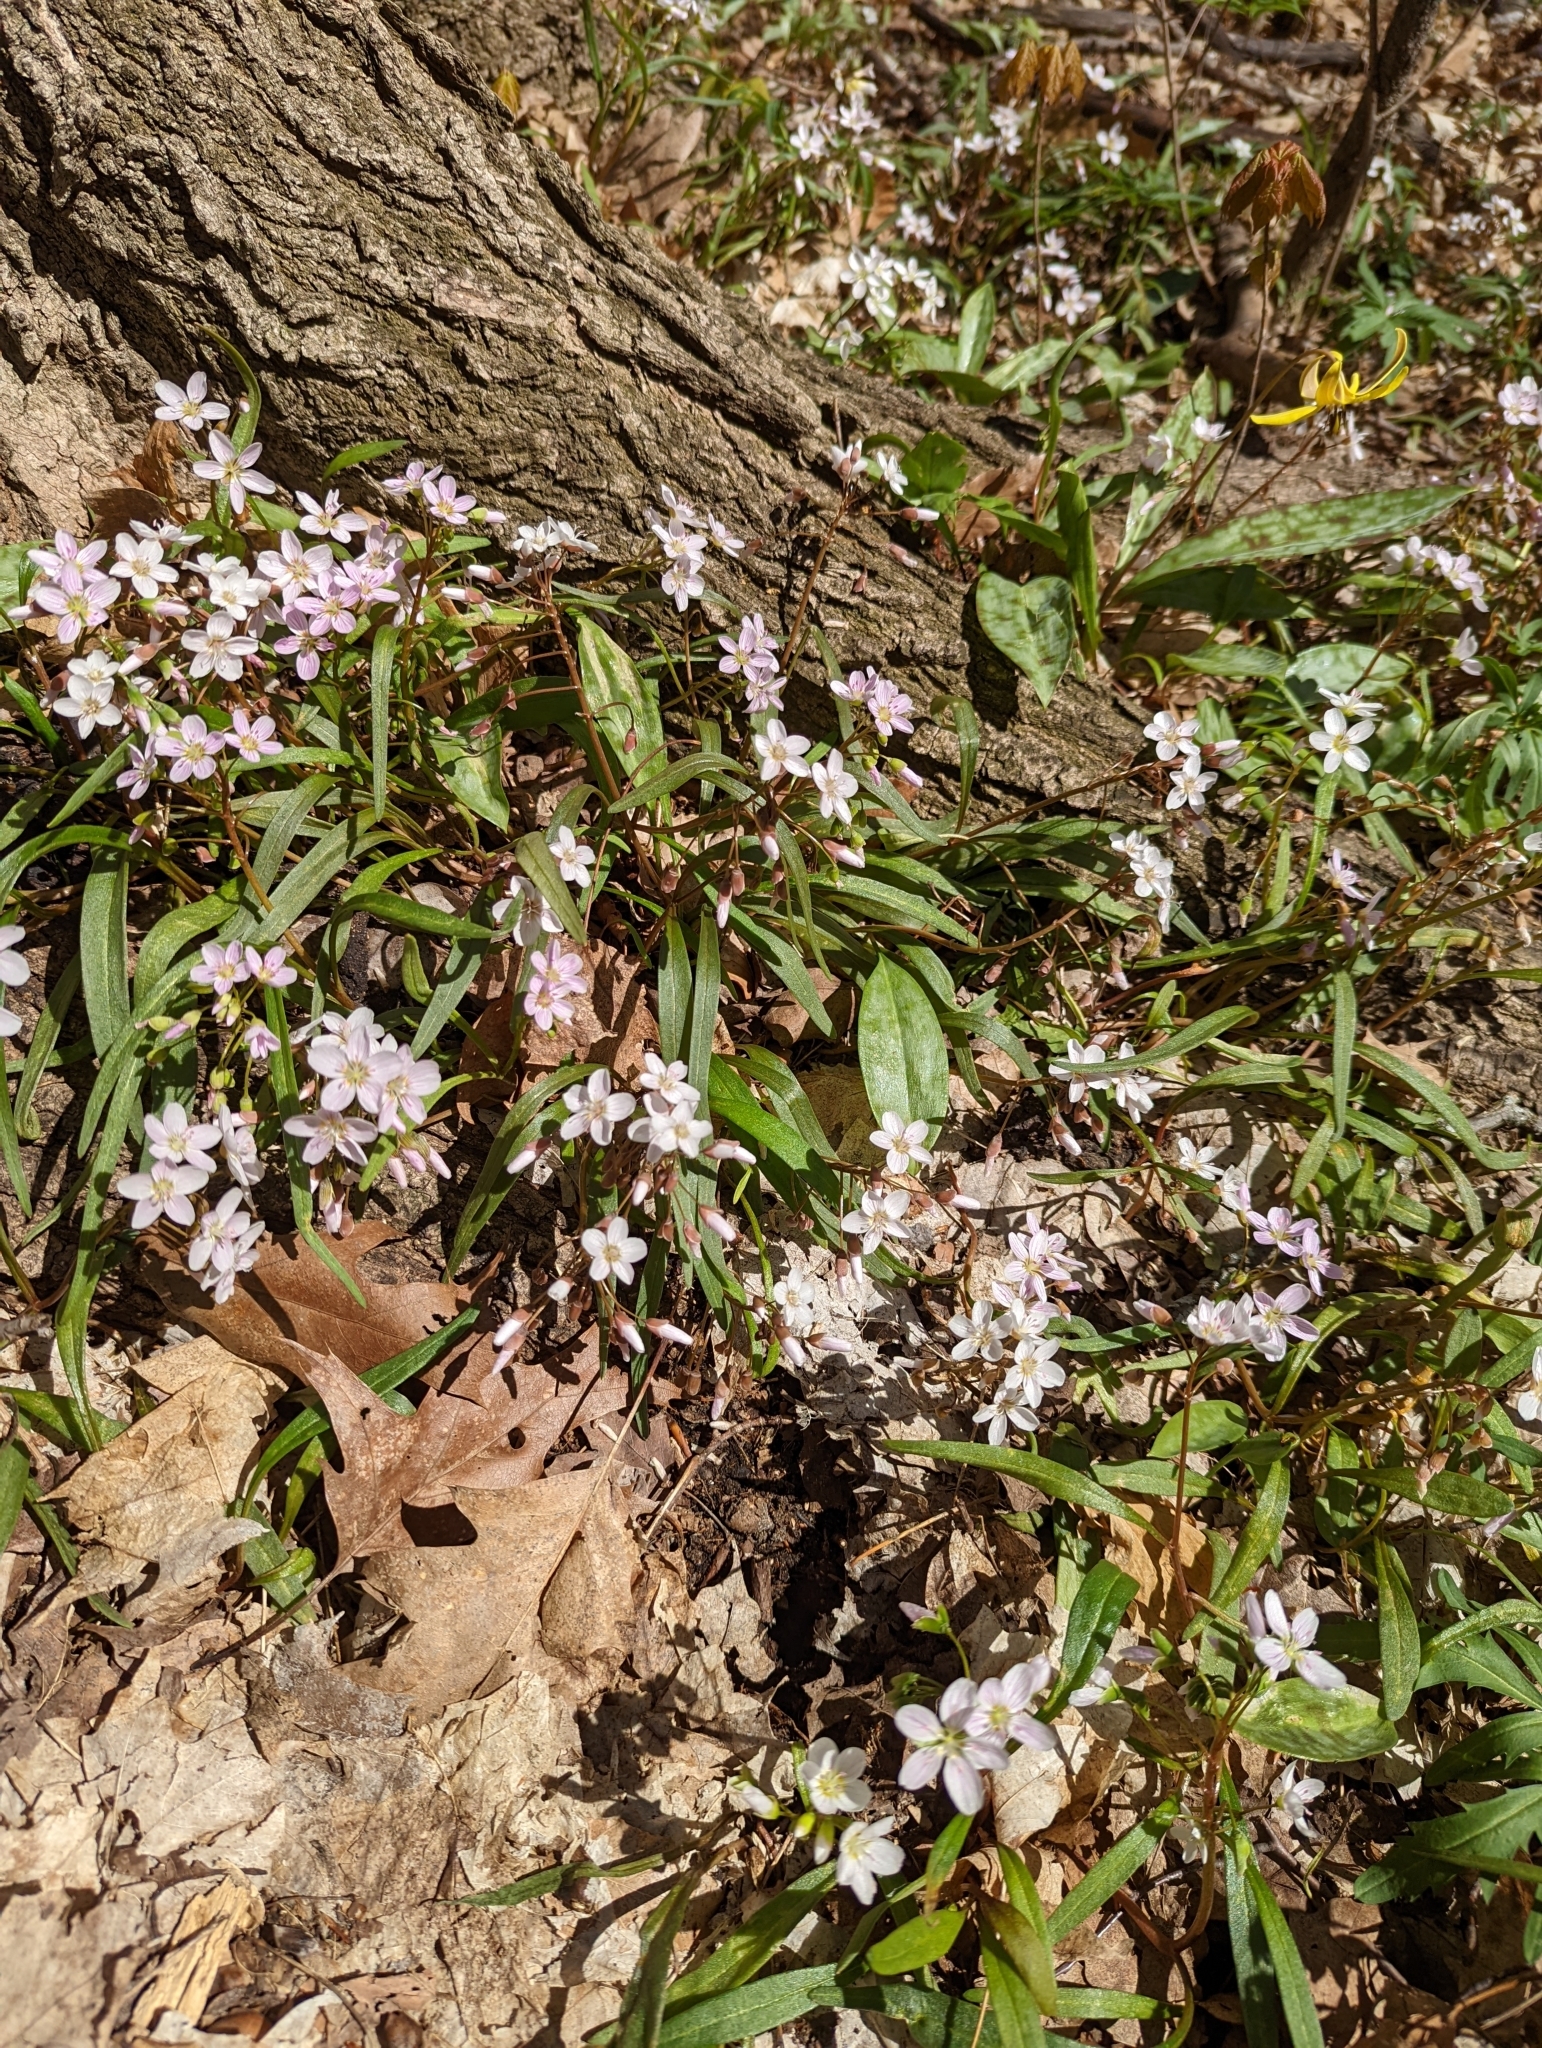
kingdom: Plantae
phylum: Tracheophyta
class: Magnoliopsida
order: Caryophyllales
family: Montiaceae
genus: Claytonia
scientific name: Claytonia virginica
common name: Virginia springbeauty
